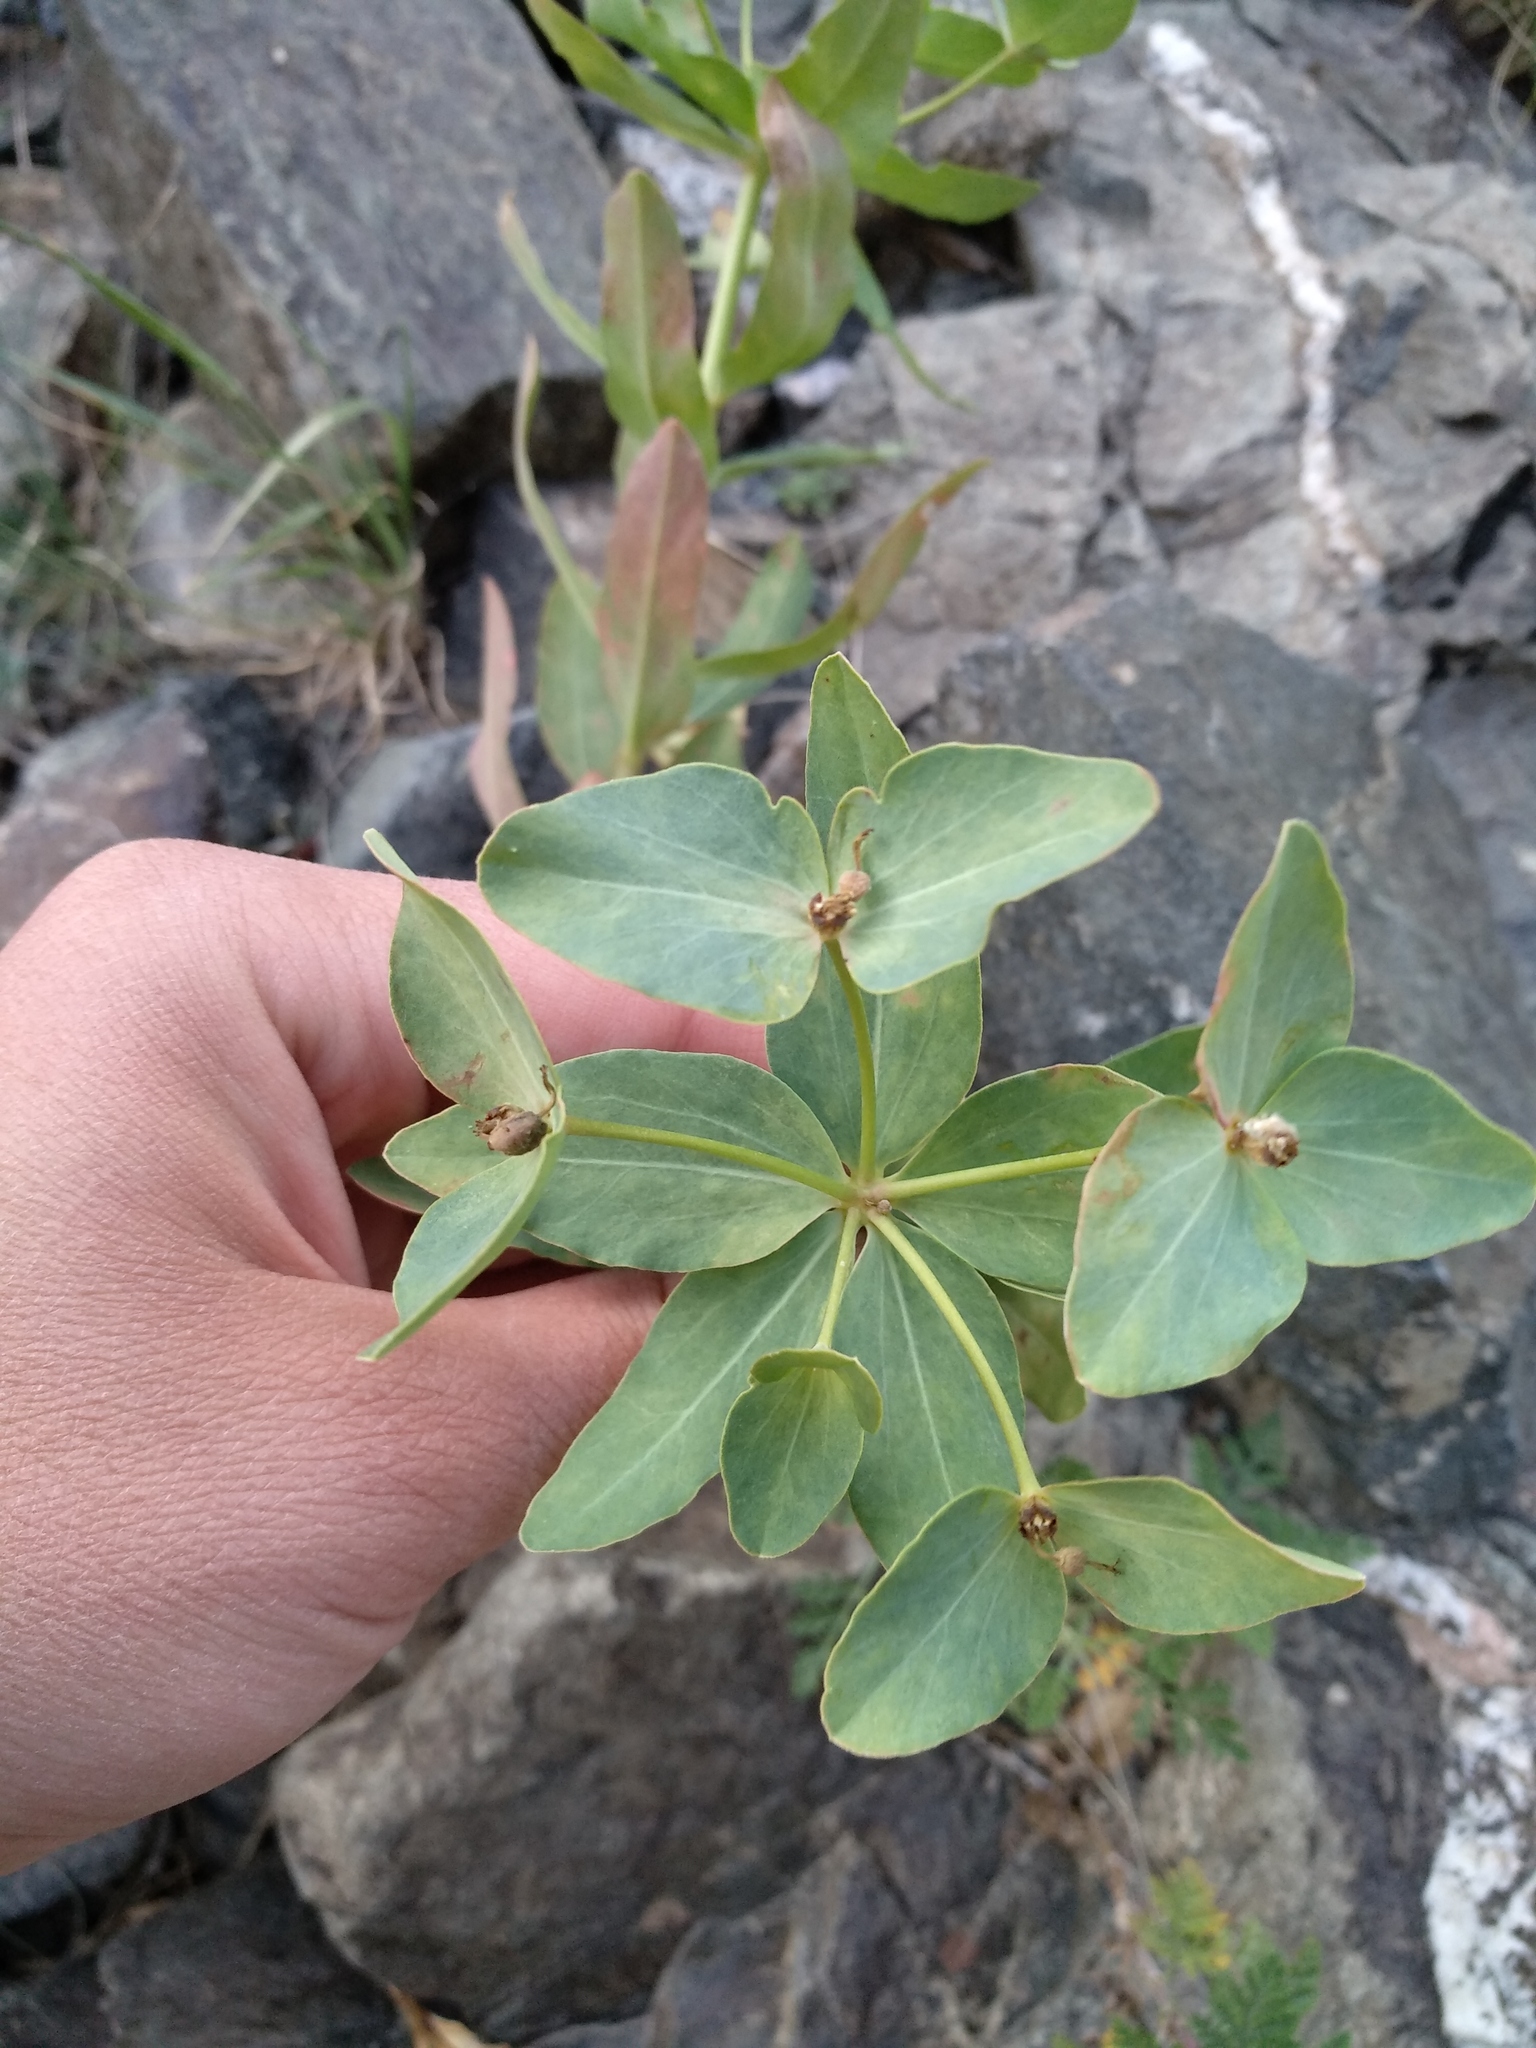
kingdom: Plantae
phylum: Tracheophyta
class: Magnoliopsida
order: Malpighiales
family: Euphorbiaceae
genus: Euphorbia
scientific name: Euphorbia mongolica
